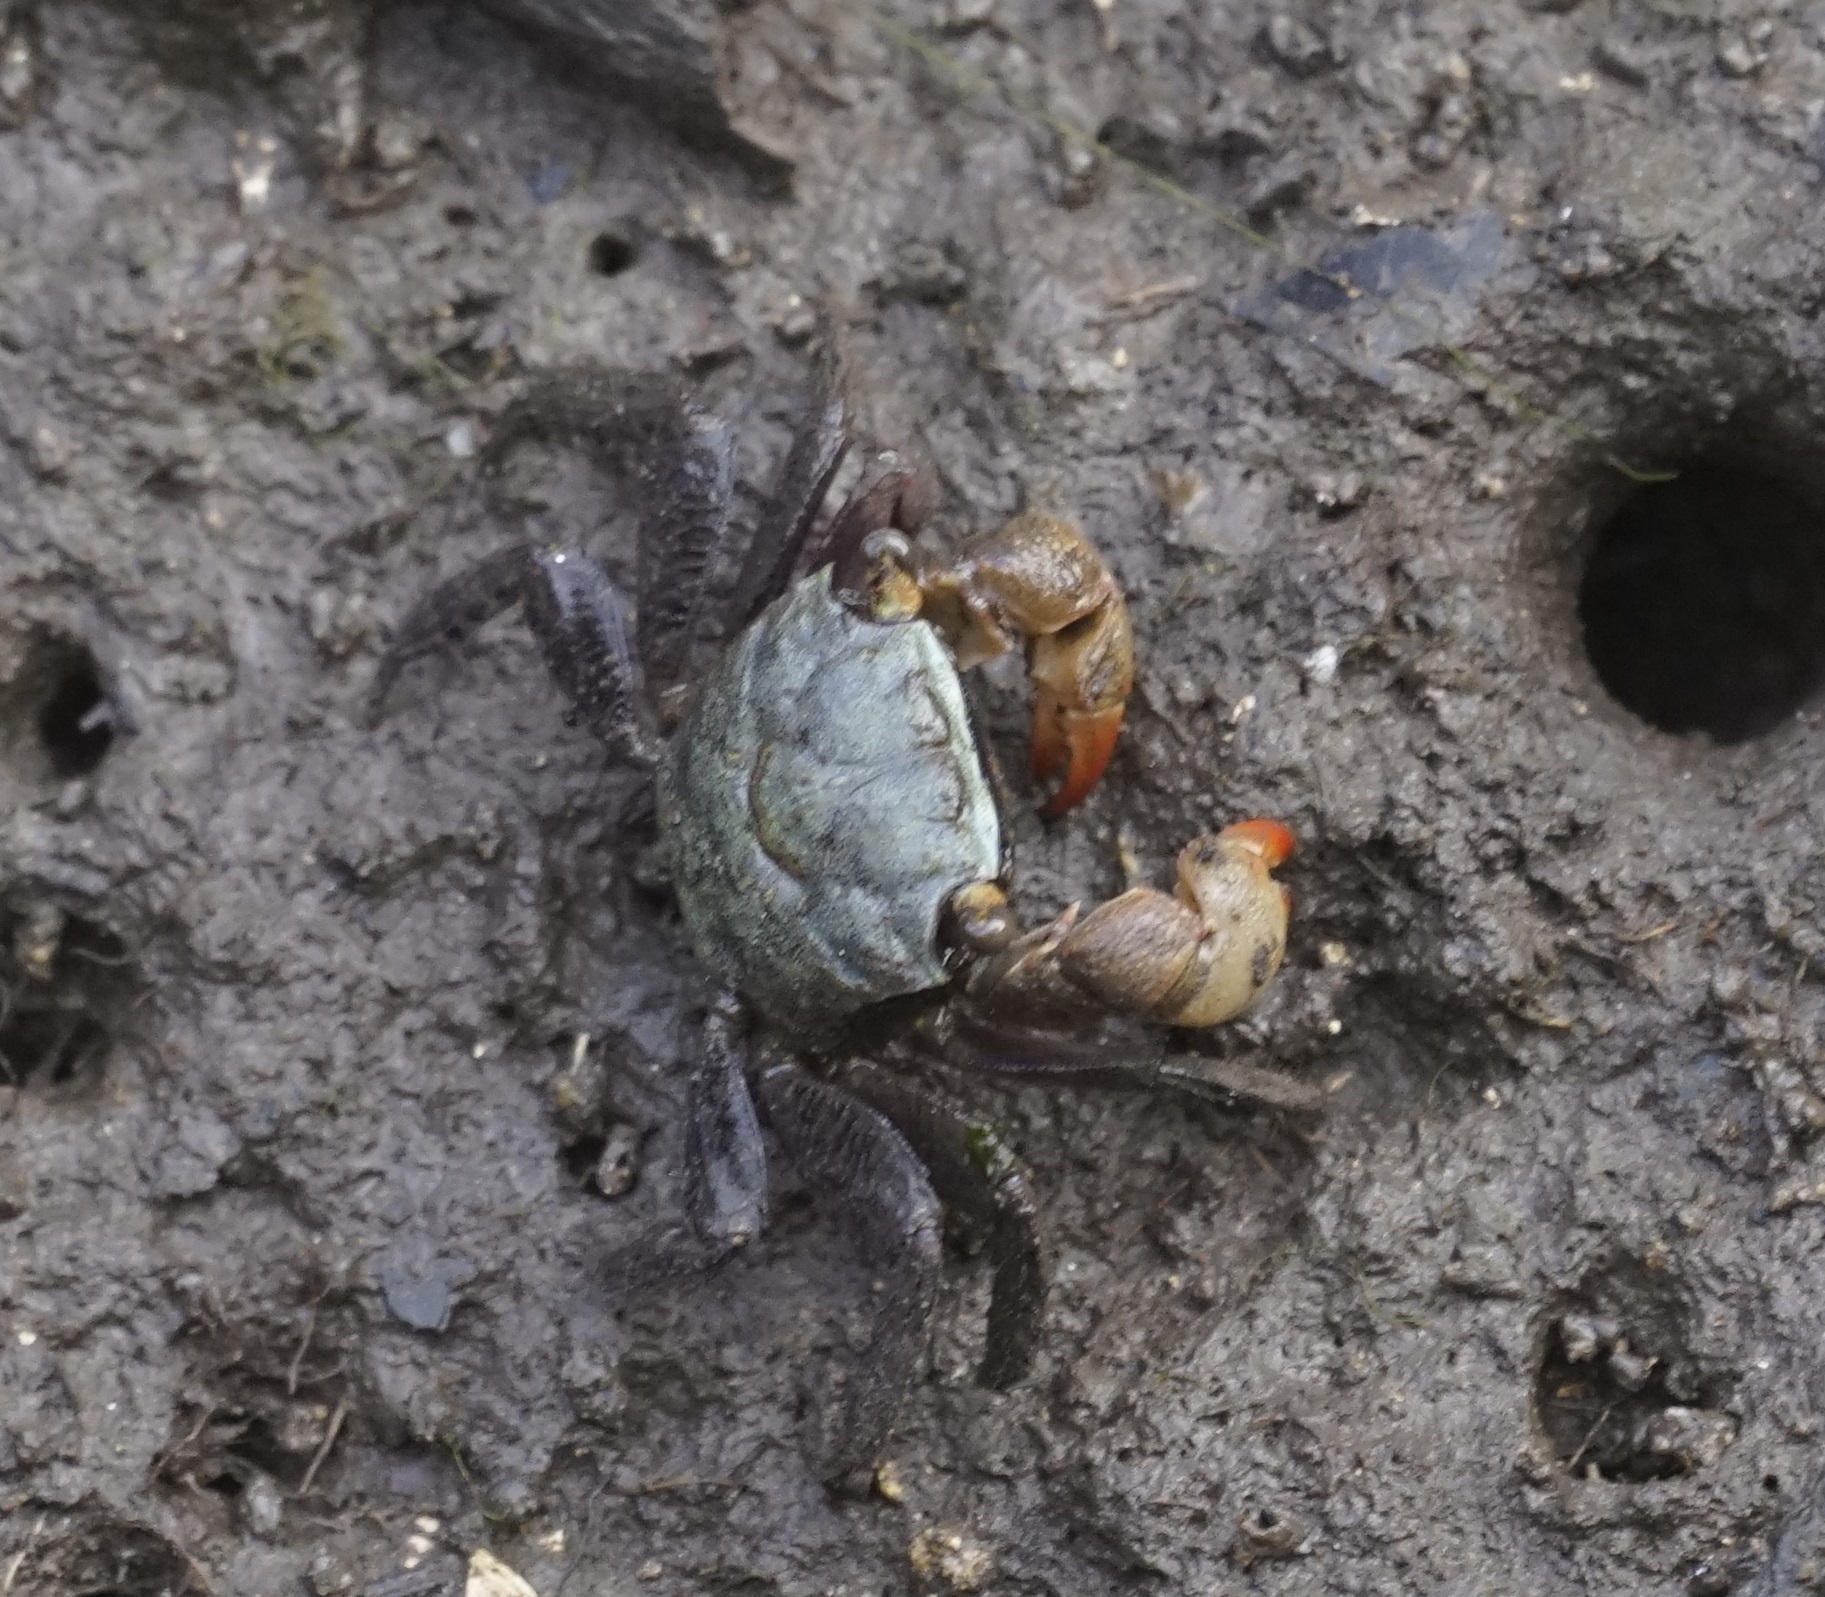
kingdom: Animalia
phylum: Arthropoda
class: Malacostraca
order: Decapoda
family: Sesarmidae
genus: Parasesarma
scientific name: Parasesarma erythodactylum
